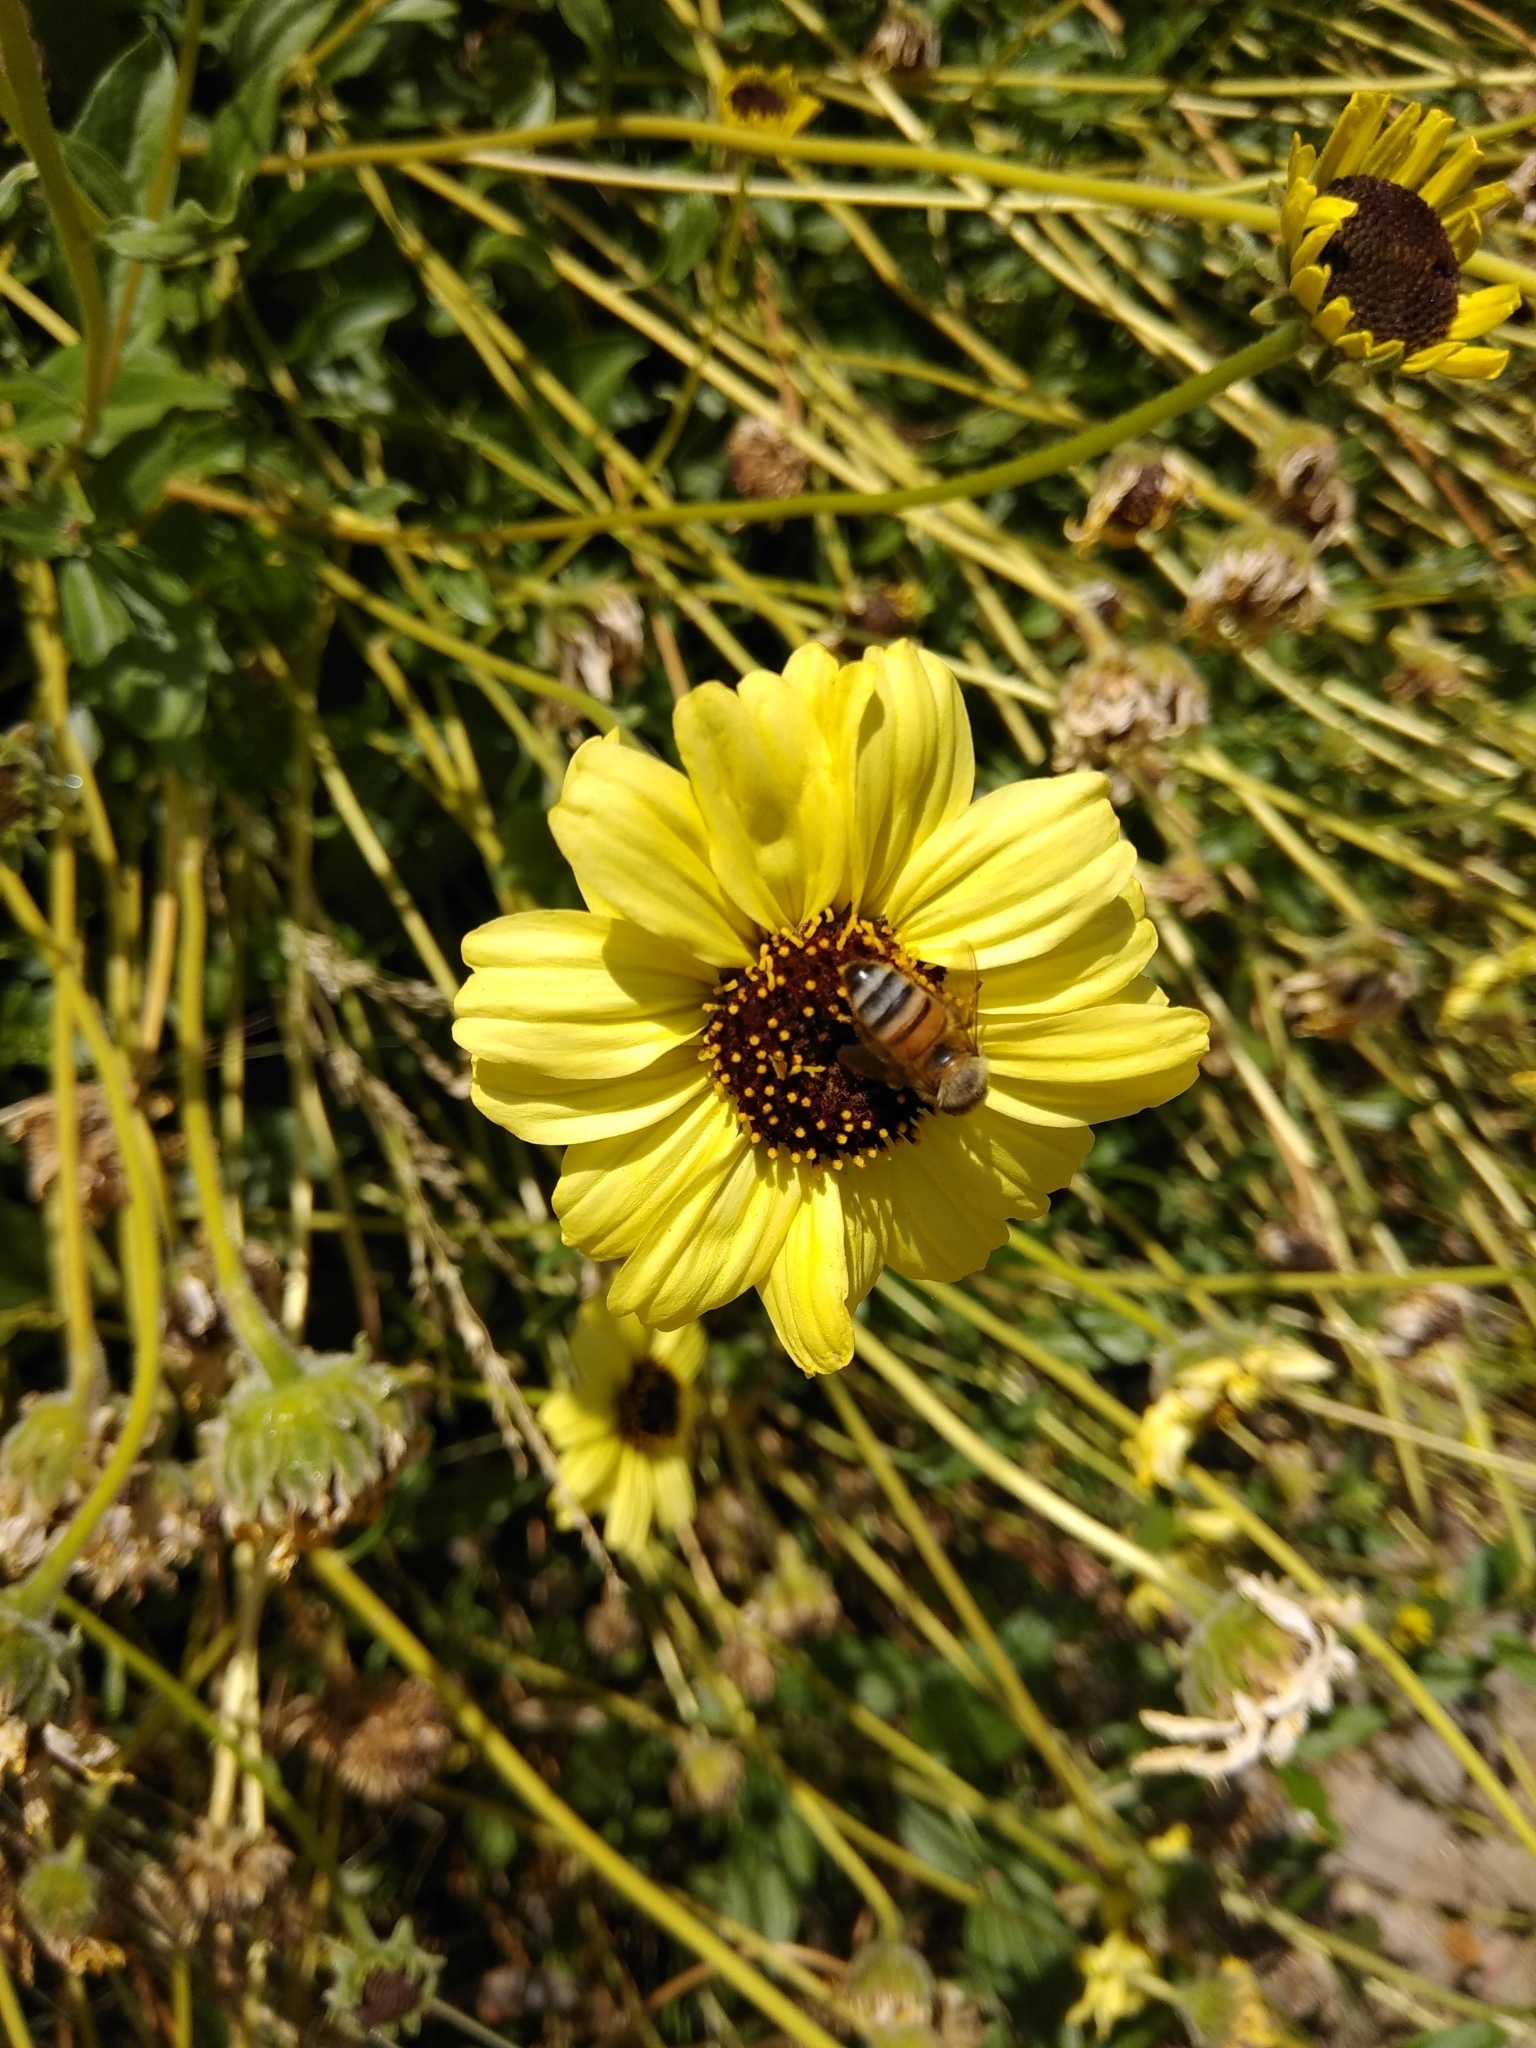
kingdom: Animalia
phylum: Arthropoda
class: Insecta
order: Hymenoptera
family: Apidae
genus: Apis
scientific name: Apis mellifera
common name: Honey bee
